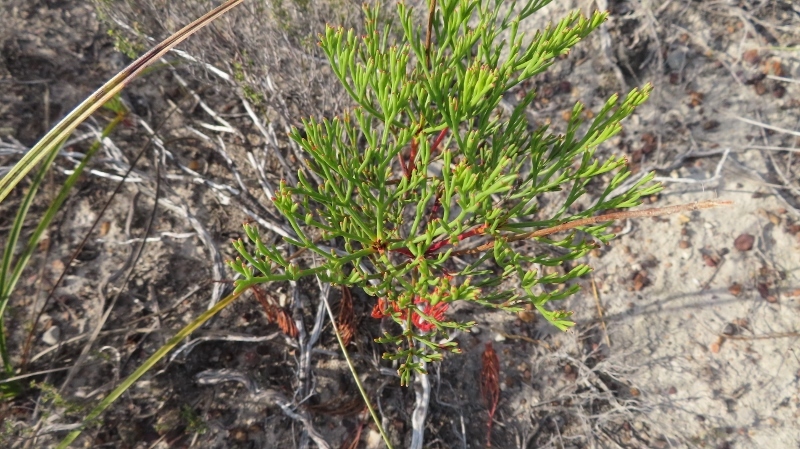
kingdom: Plantae
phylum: Tracheophyta
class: Magnoliopsida
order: Proteales
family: Proteaceae
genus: Serruria
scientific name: Serruria elongata
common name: Long-stalk spiderhead
